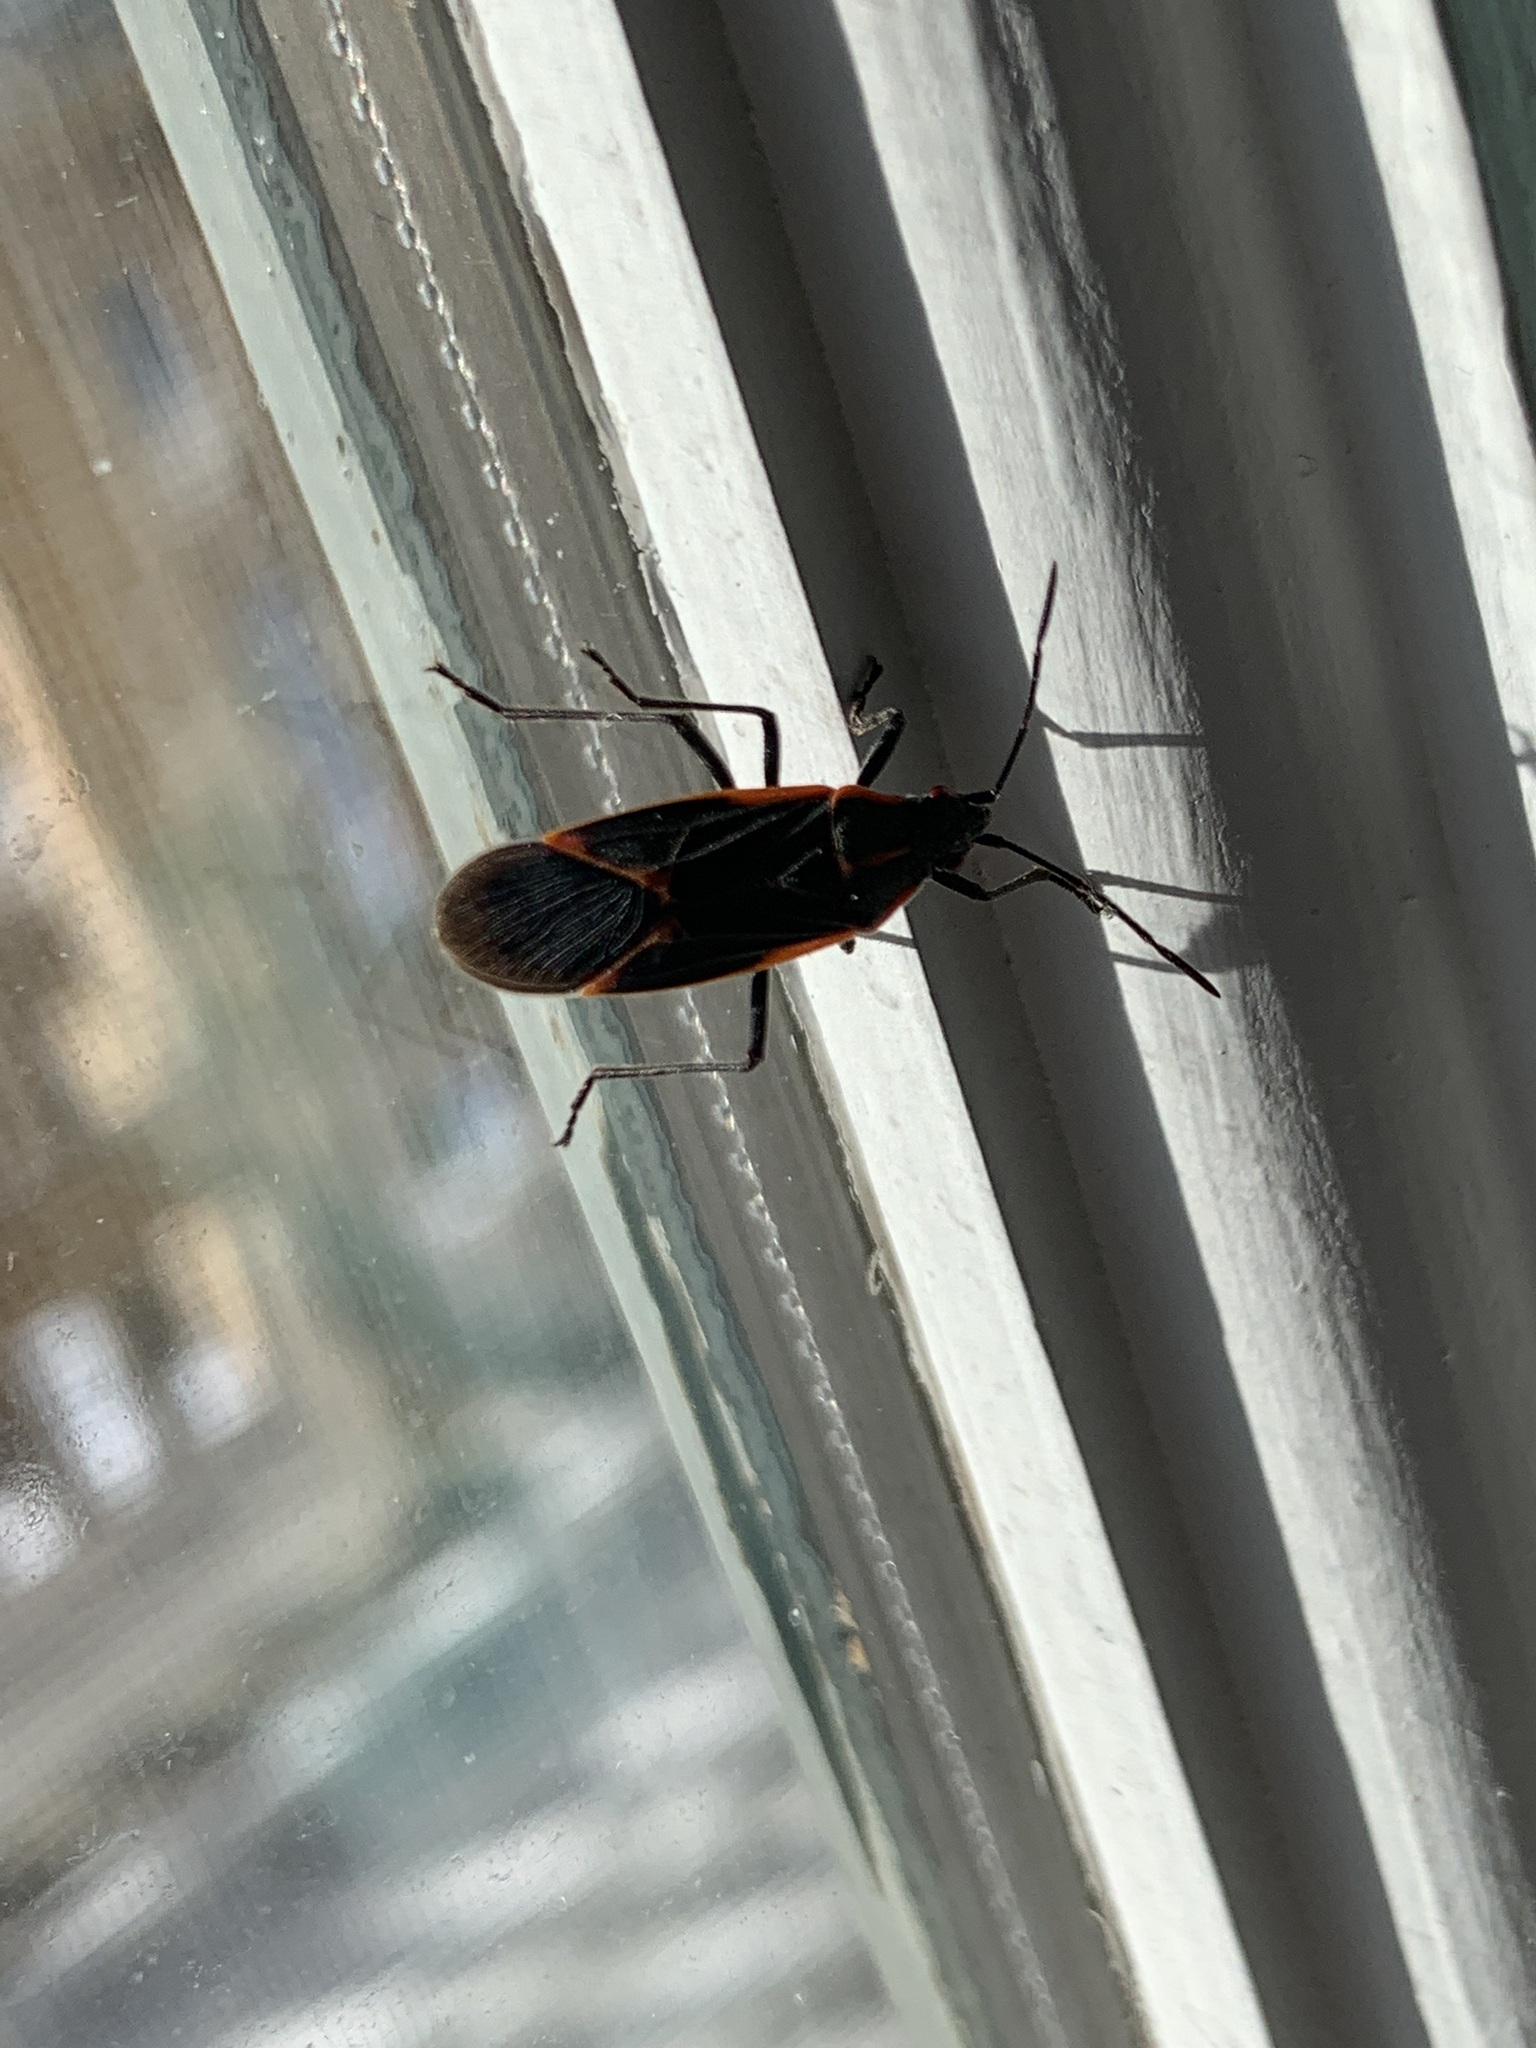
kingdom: Animalia
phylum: Arthropoda
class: Insecta
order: Hemiptera
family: Rhopalidae
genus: Boisea
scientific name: Boisea trivittata
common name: Boxelder bug
